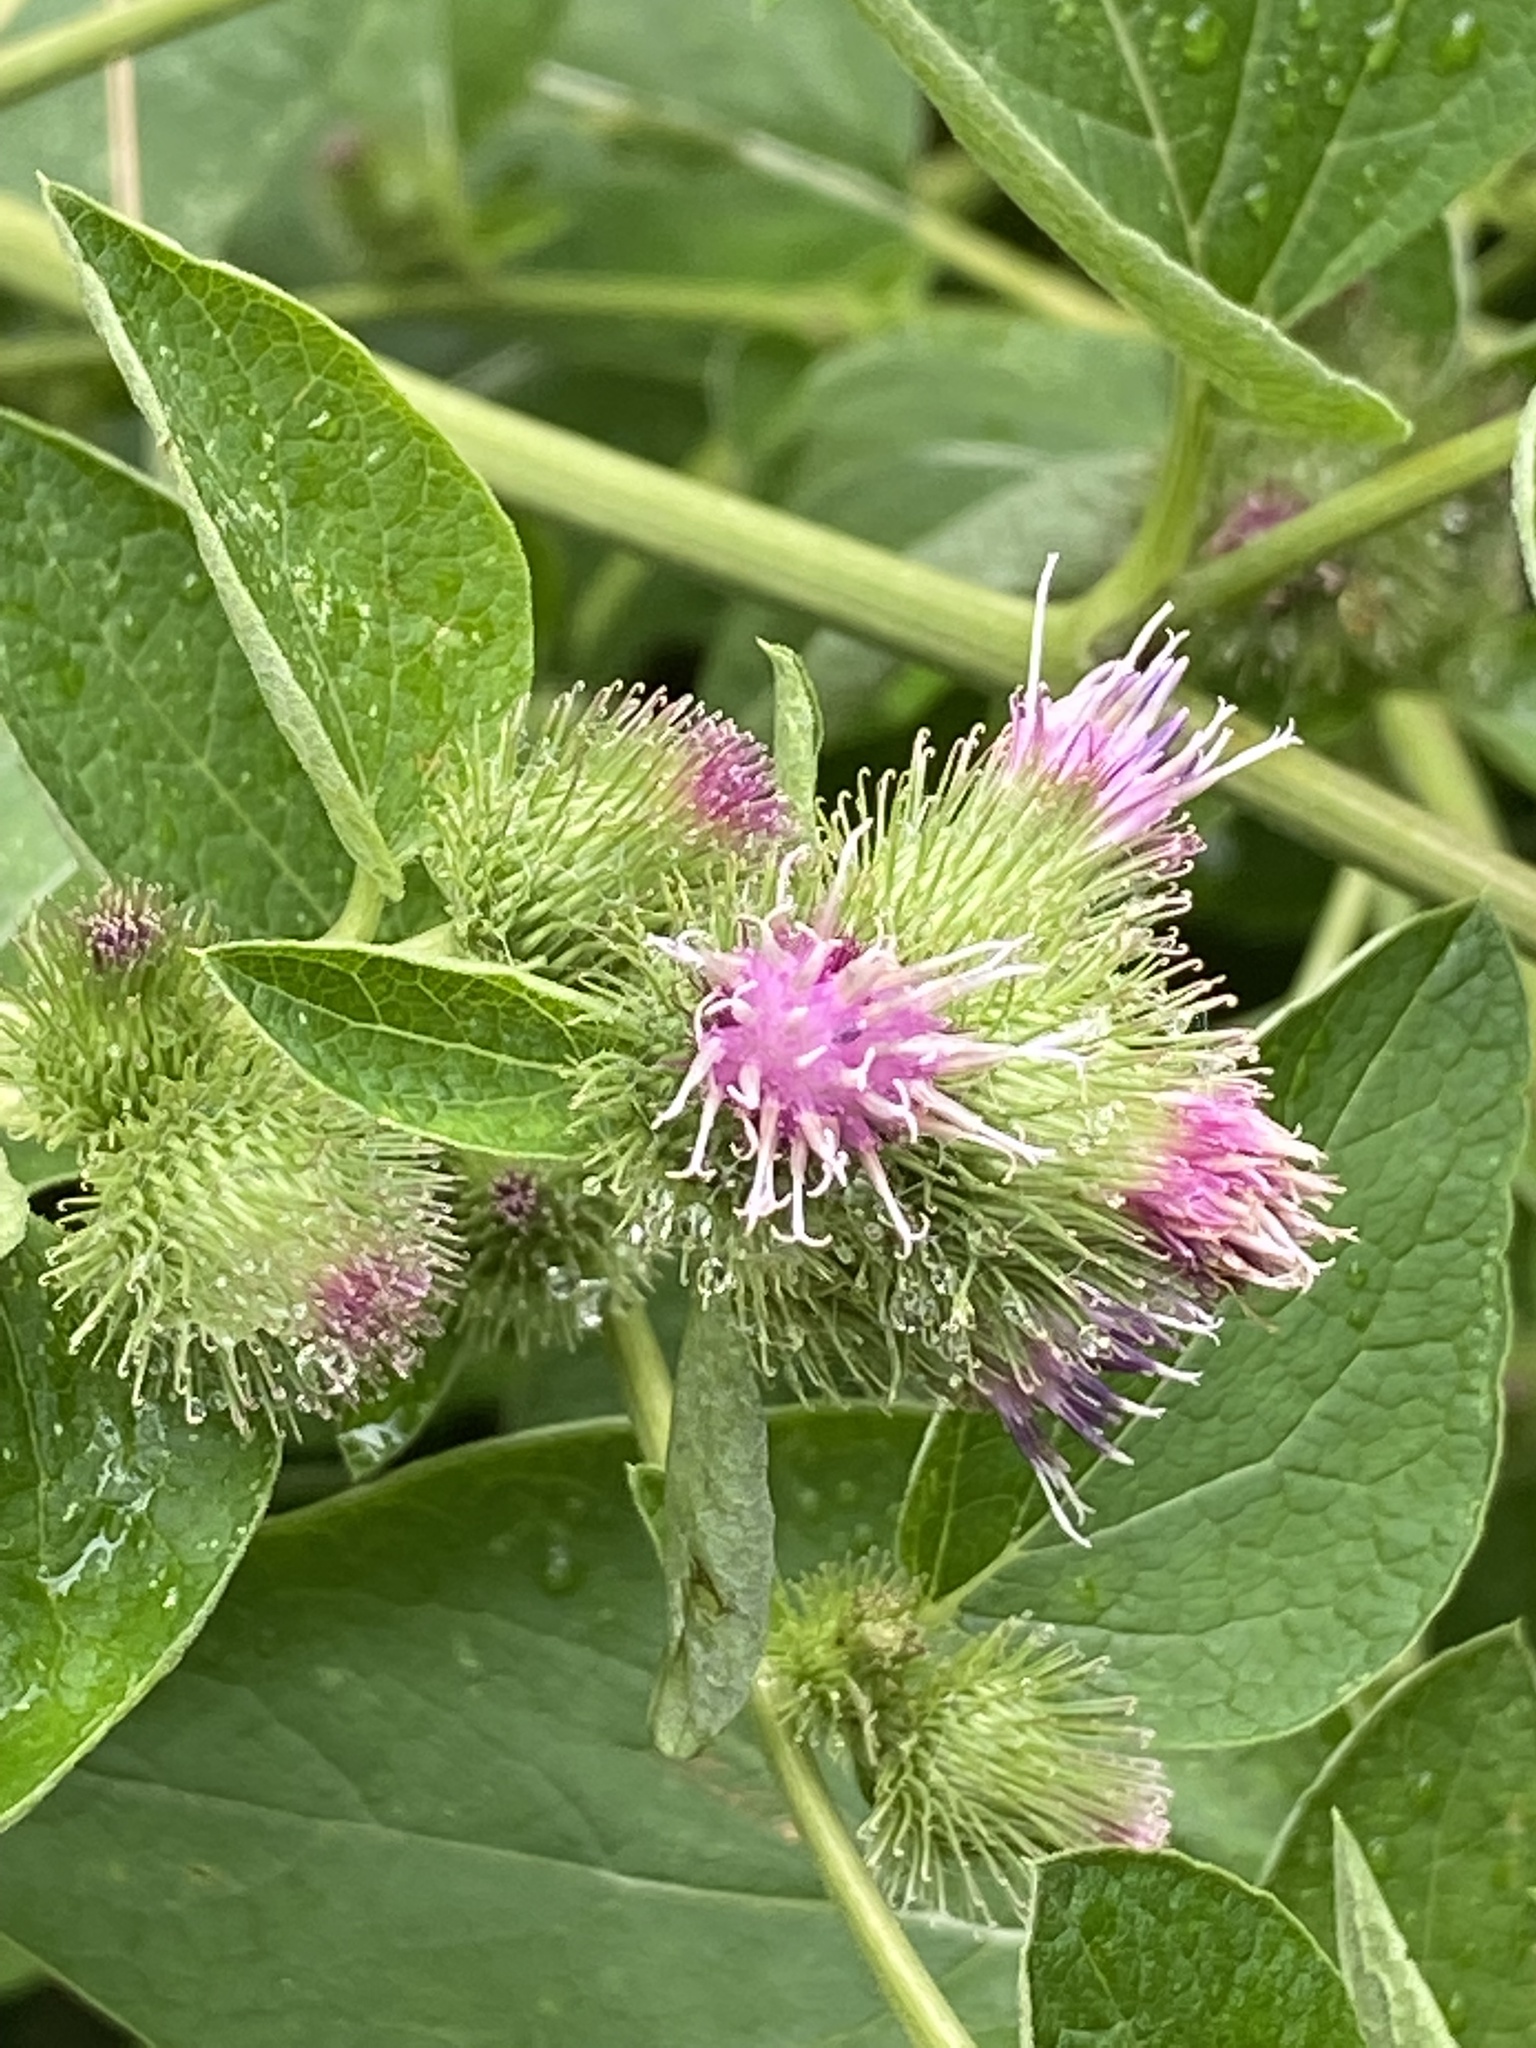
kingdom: Plantae
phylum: Tracheophyta
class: Magnoliopsida
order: Asterales
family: Asteraceae
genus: Arctium
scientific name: Arctium minus
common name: Lesser burdock
